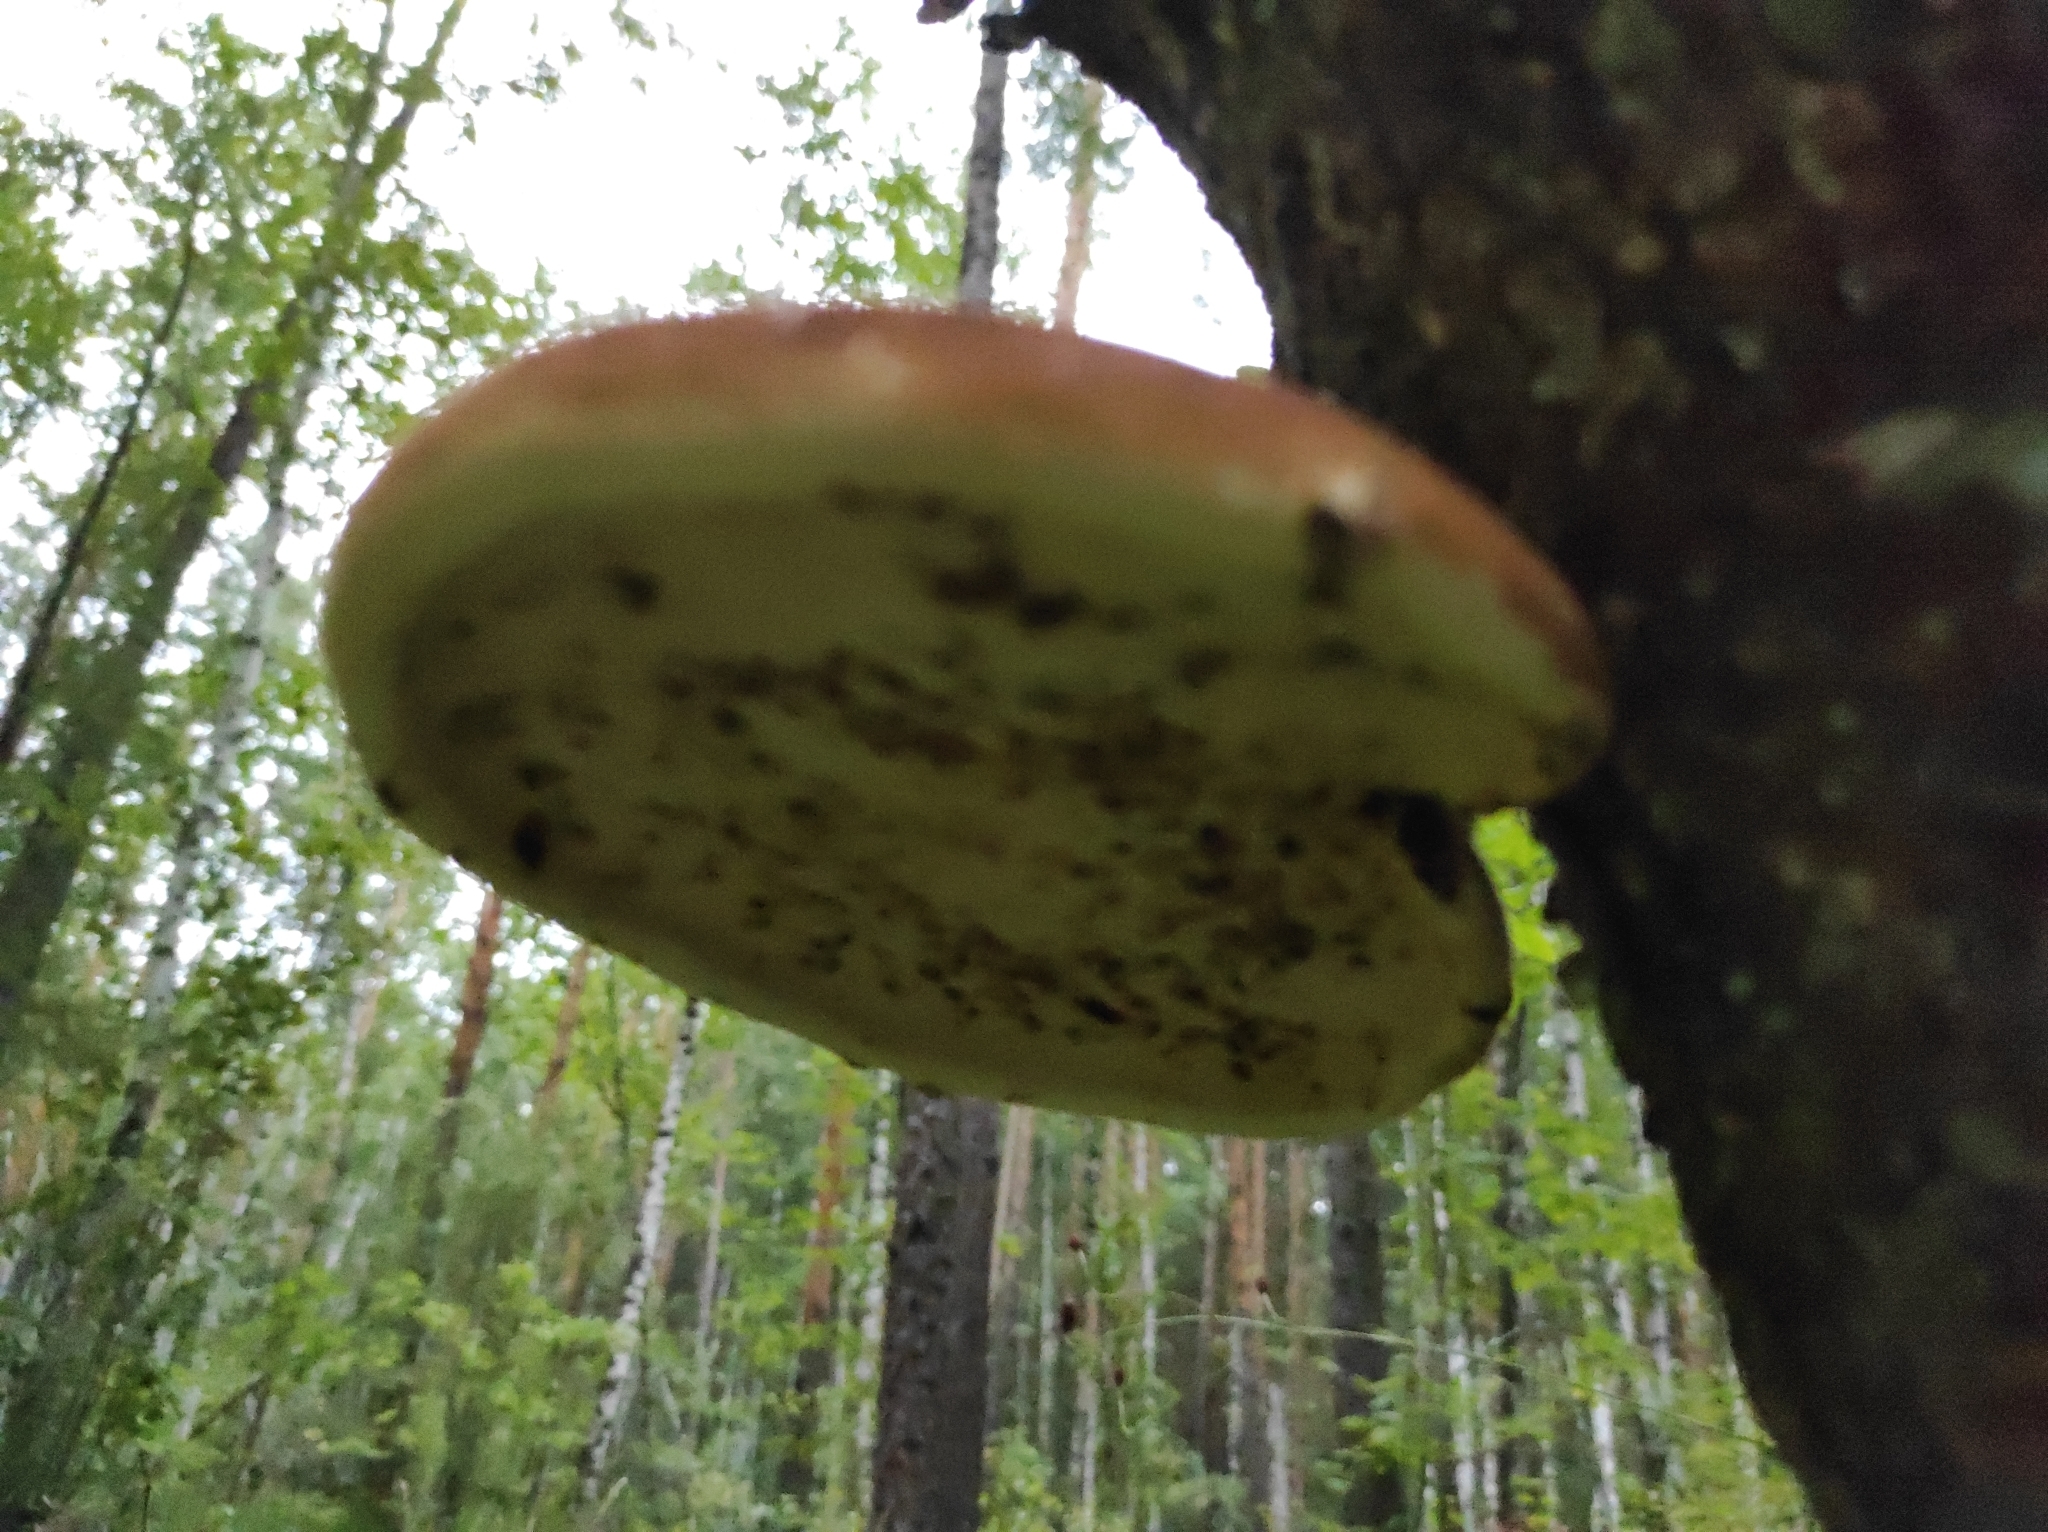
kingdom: Fungi
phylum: Basidiomycota
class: Agaricomycetes
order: Polyporales
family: Fomitopsidaceae
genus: Fomitopsis
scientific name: Fomitopsis betulina
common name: Birch polypore
